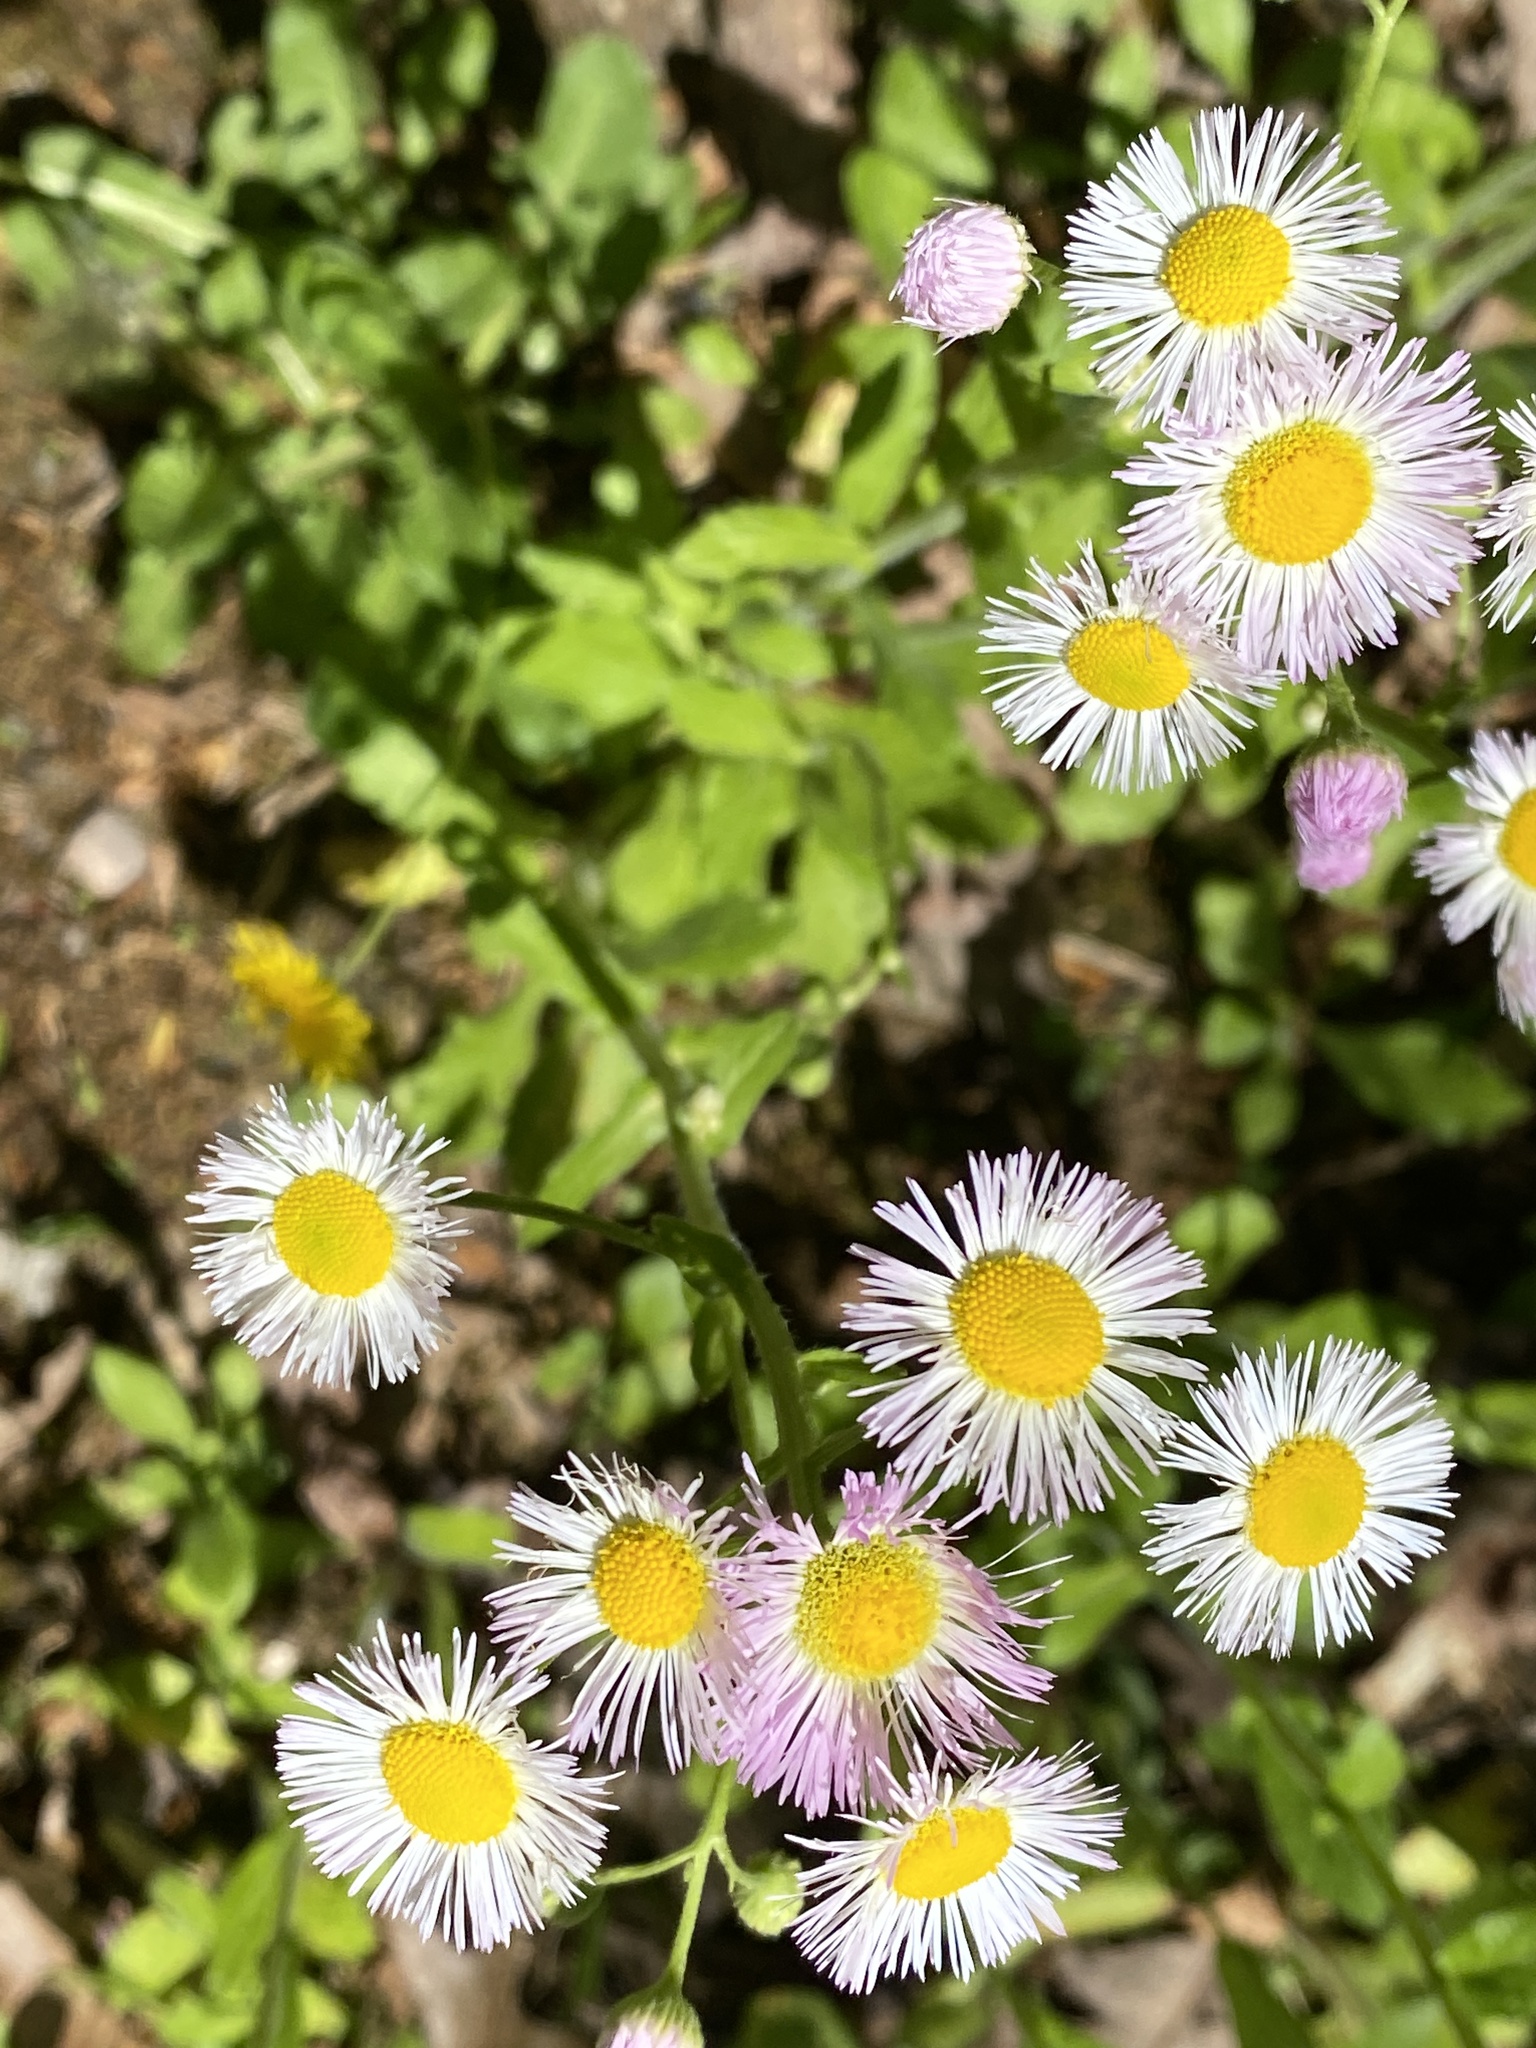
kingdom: Plantae
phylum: Tracheophyta
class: Magnoliopsida
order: Asterales
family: Asteraceae
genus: Erigeron
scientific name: Erigeron philadelphicus
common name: Robin's-plantain
